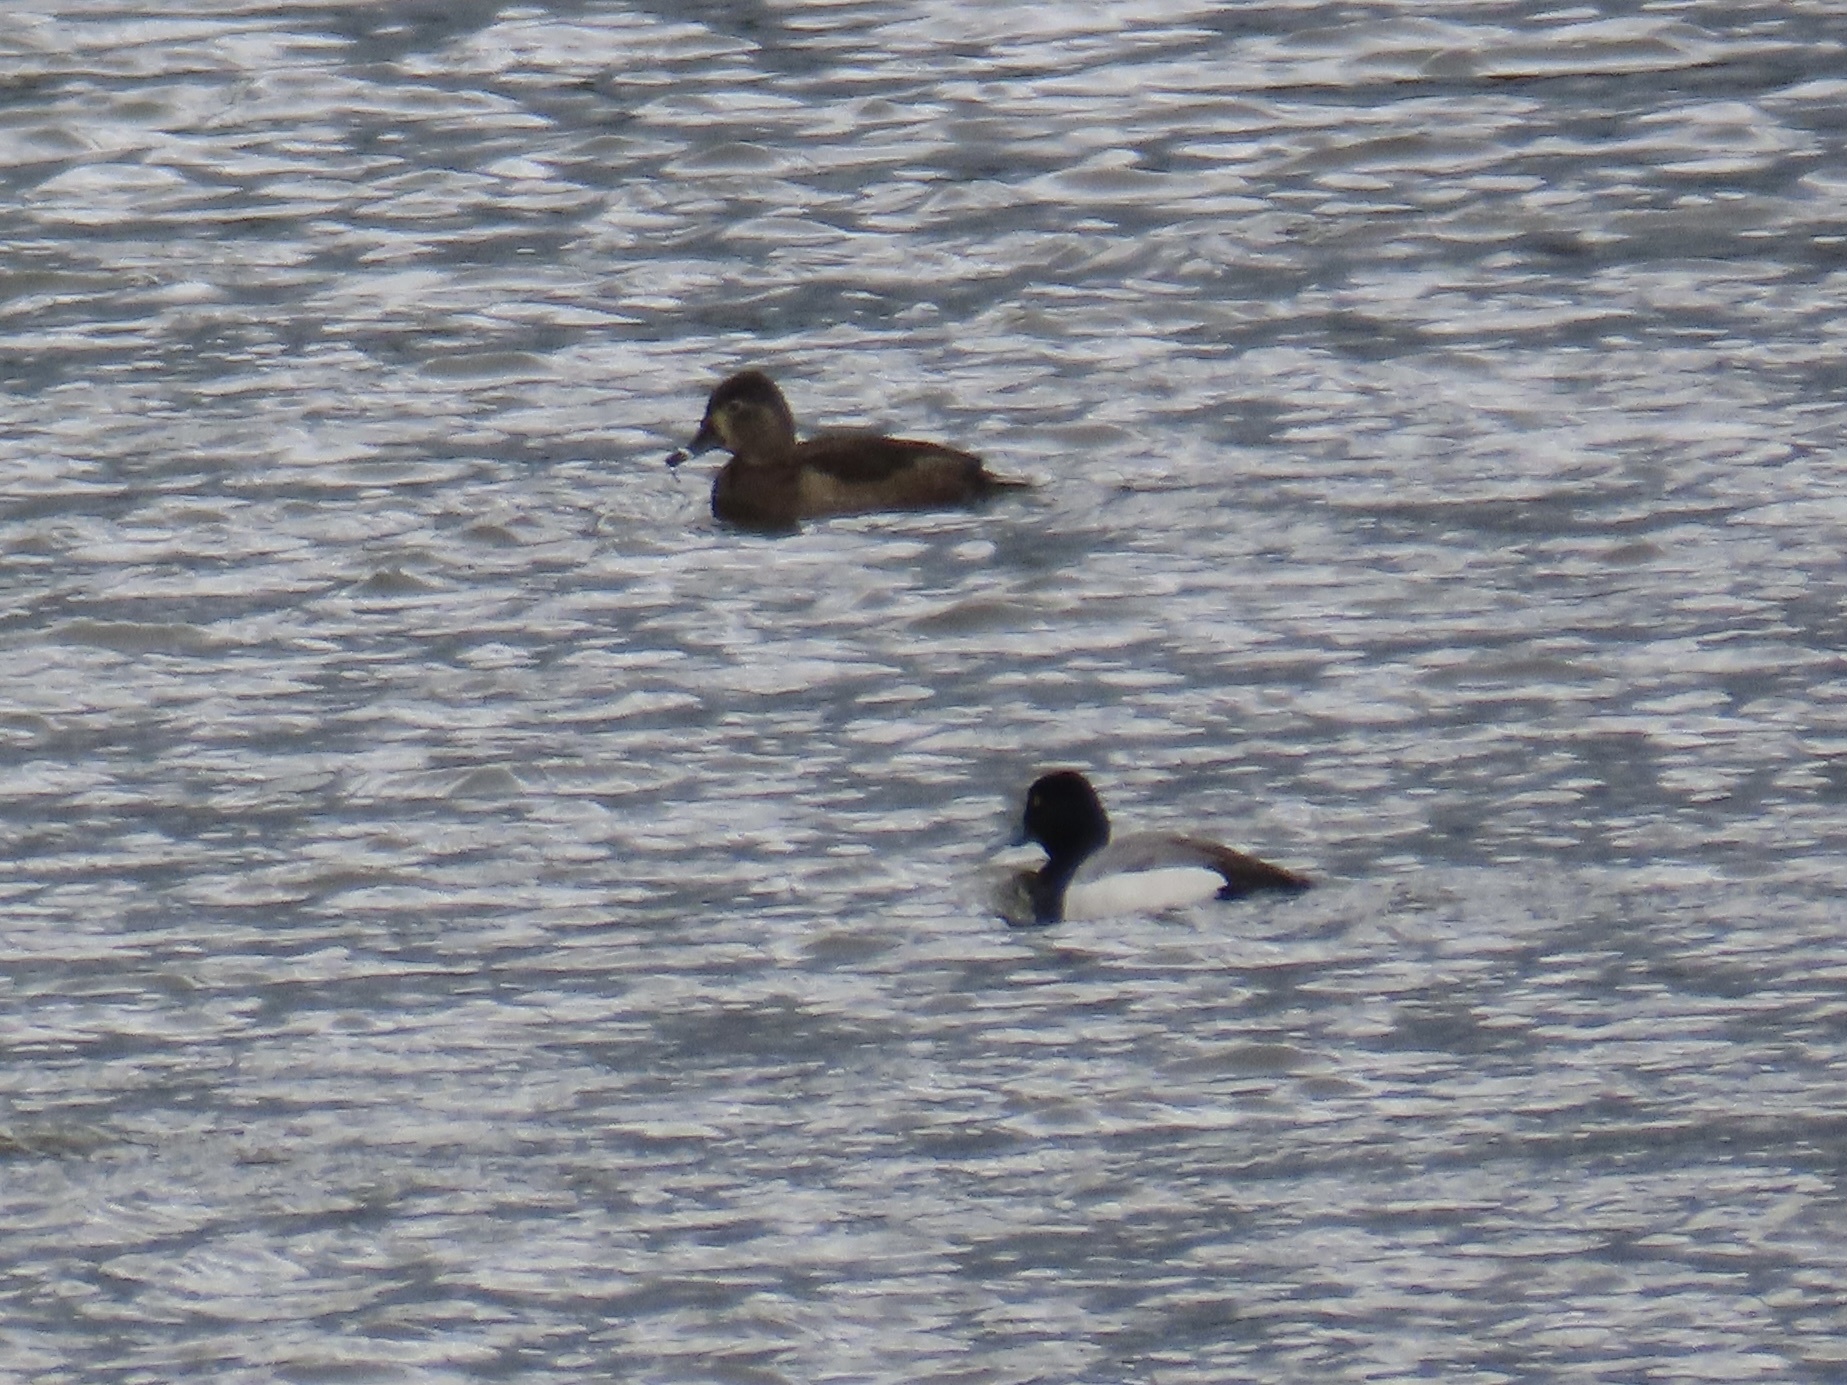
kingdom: Animalia
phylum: Chordata
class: Aves
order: Anseriformes
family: Anatidae
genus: Aythya
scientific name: Aythya collaris
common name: Ring-necked duck
